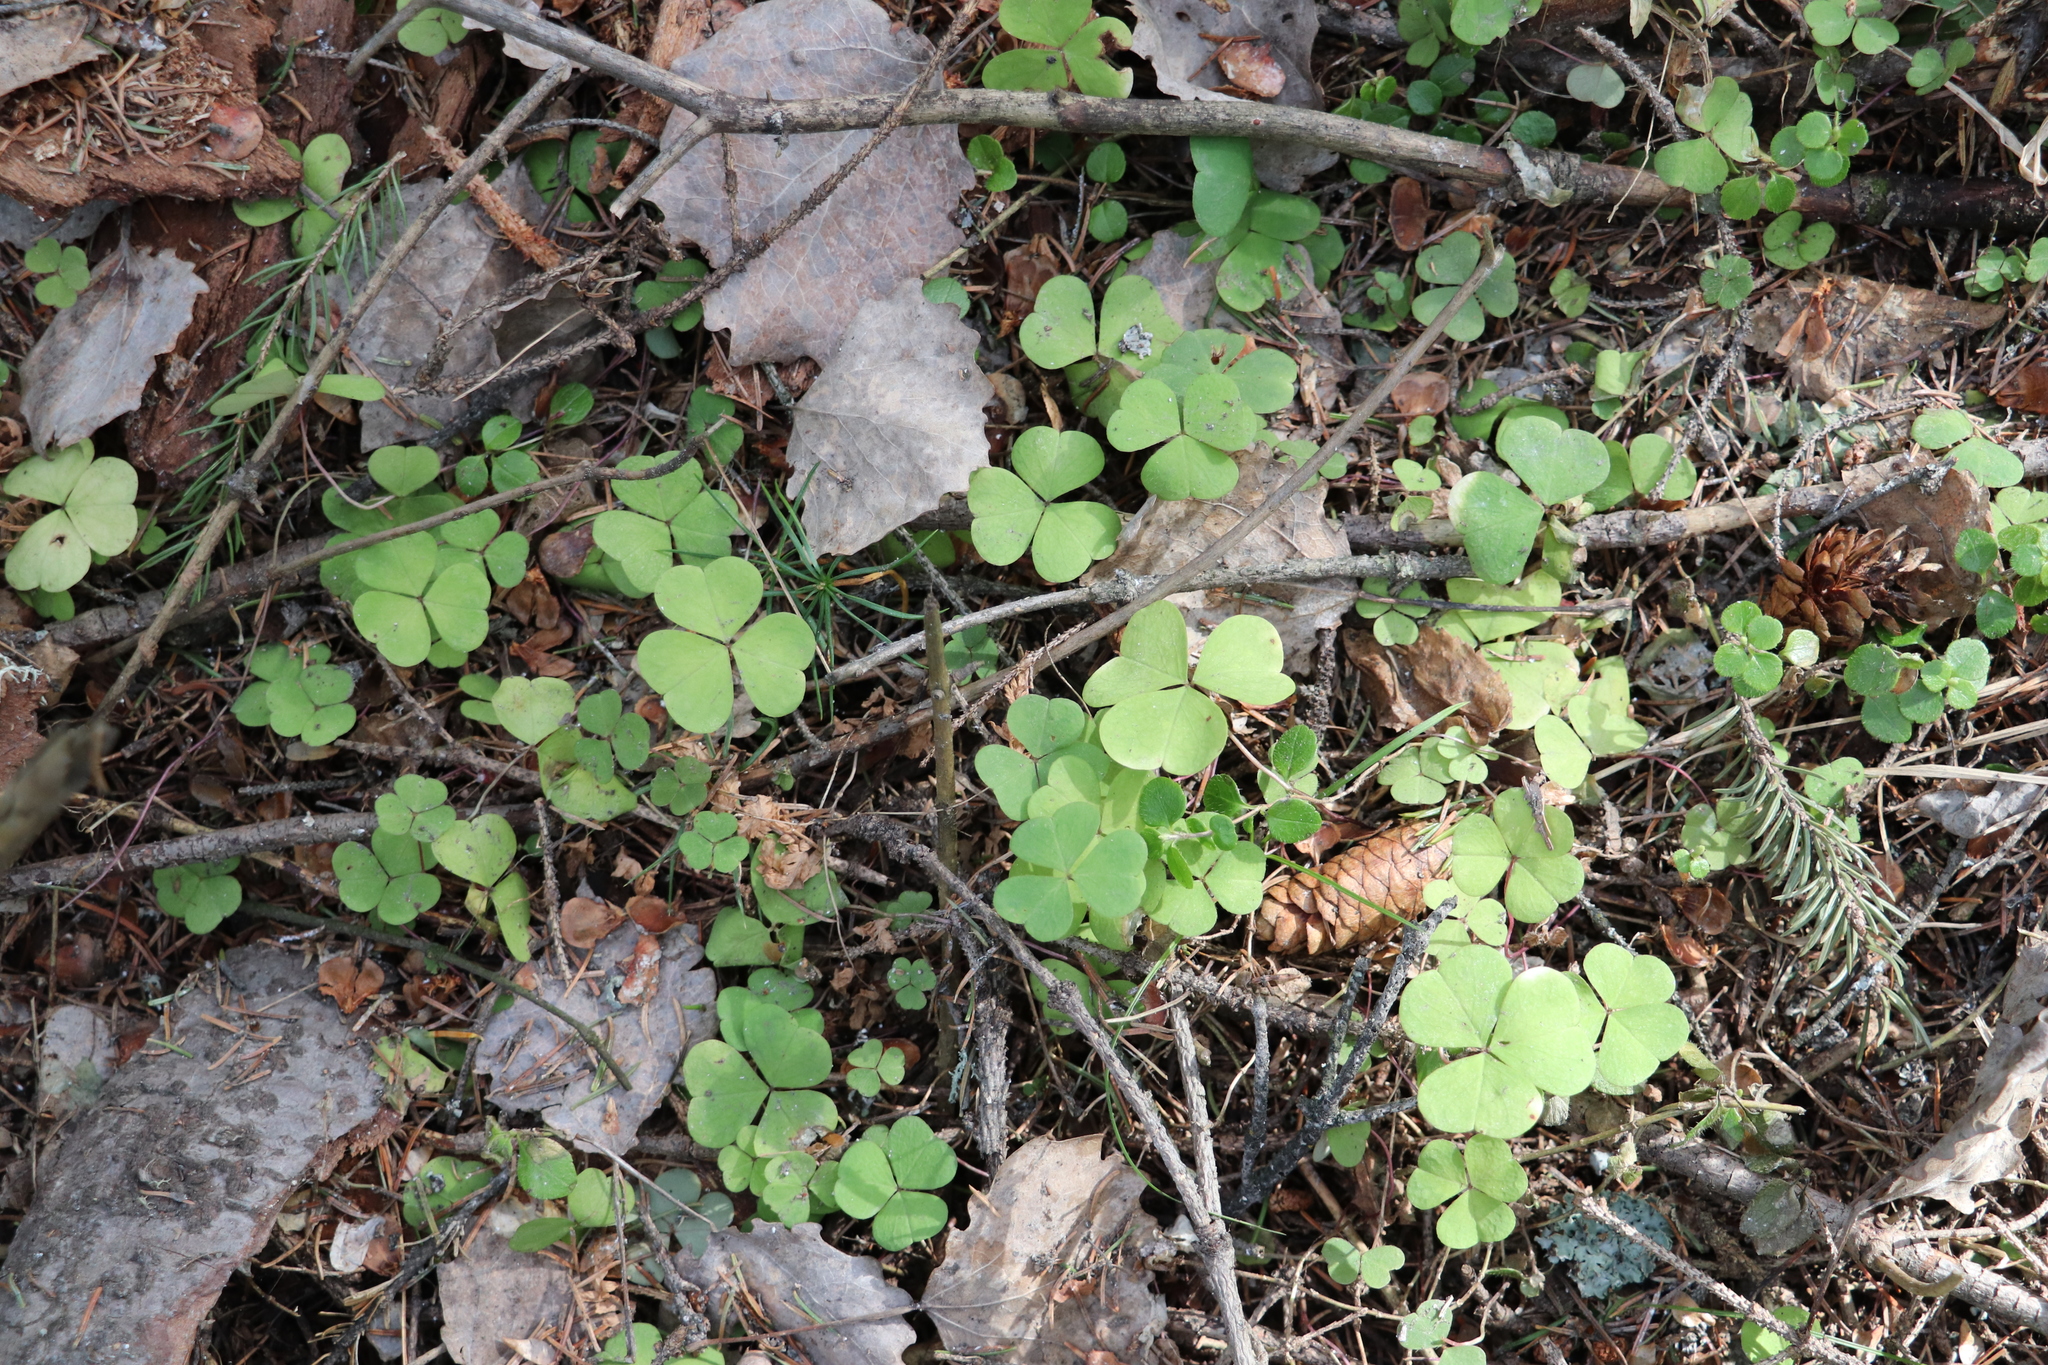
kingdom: Plantae
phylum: Tracheophyta
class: Magnoliopsida
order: Oxalidales
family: Oxalidaceae
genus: Oxalis
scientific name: Oxalis acetosella
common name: Wood-sorrel
